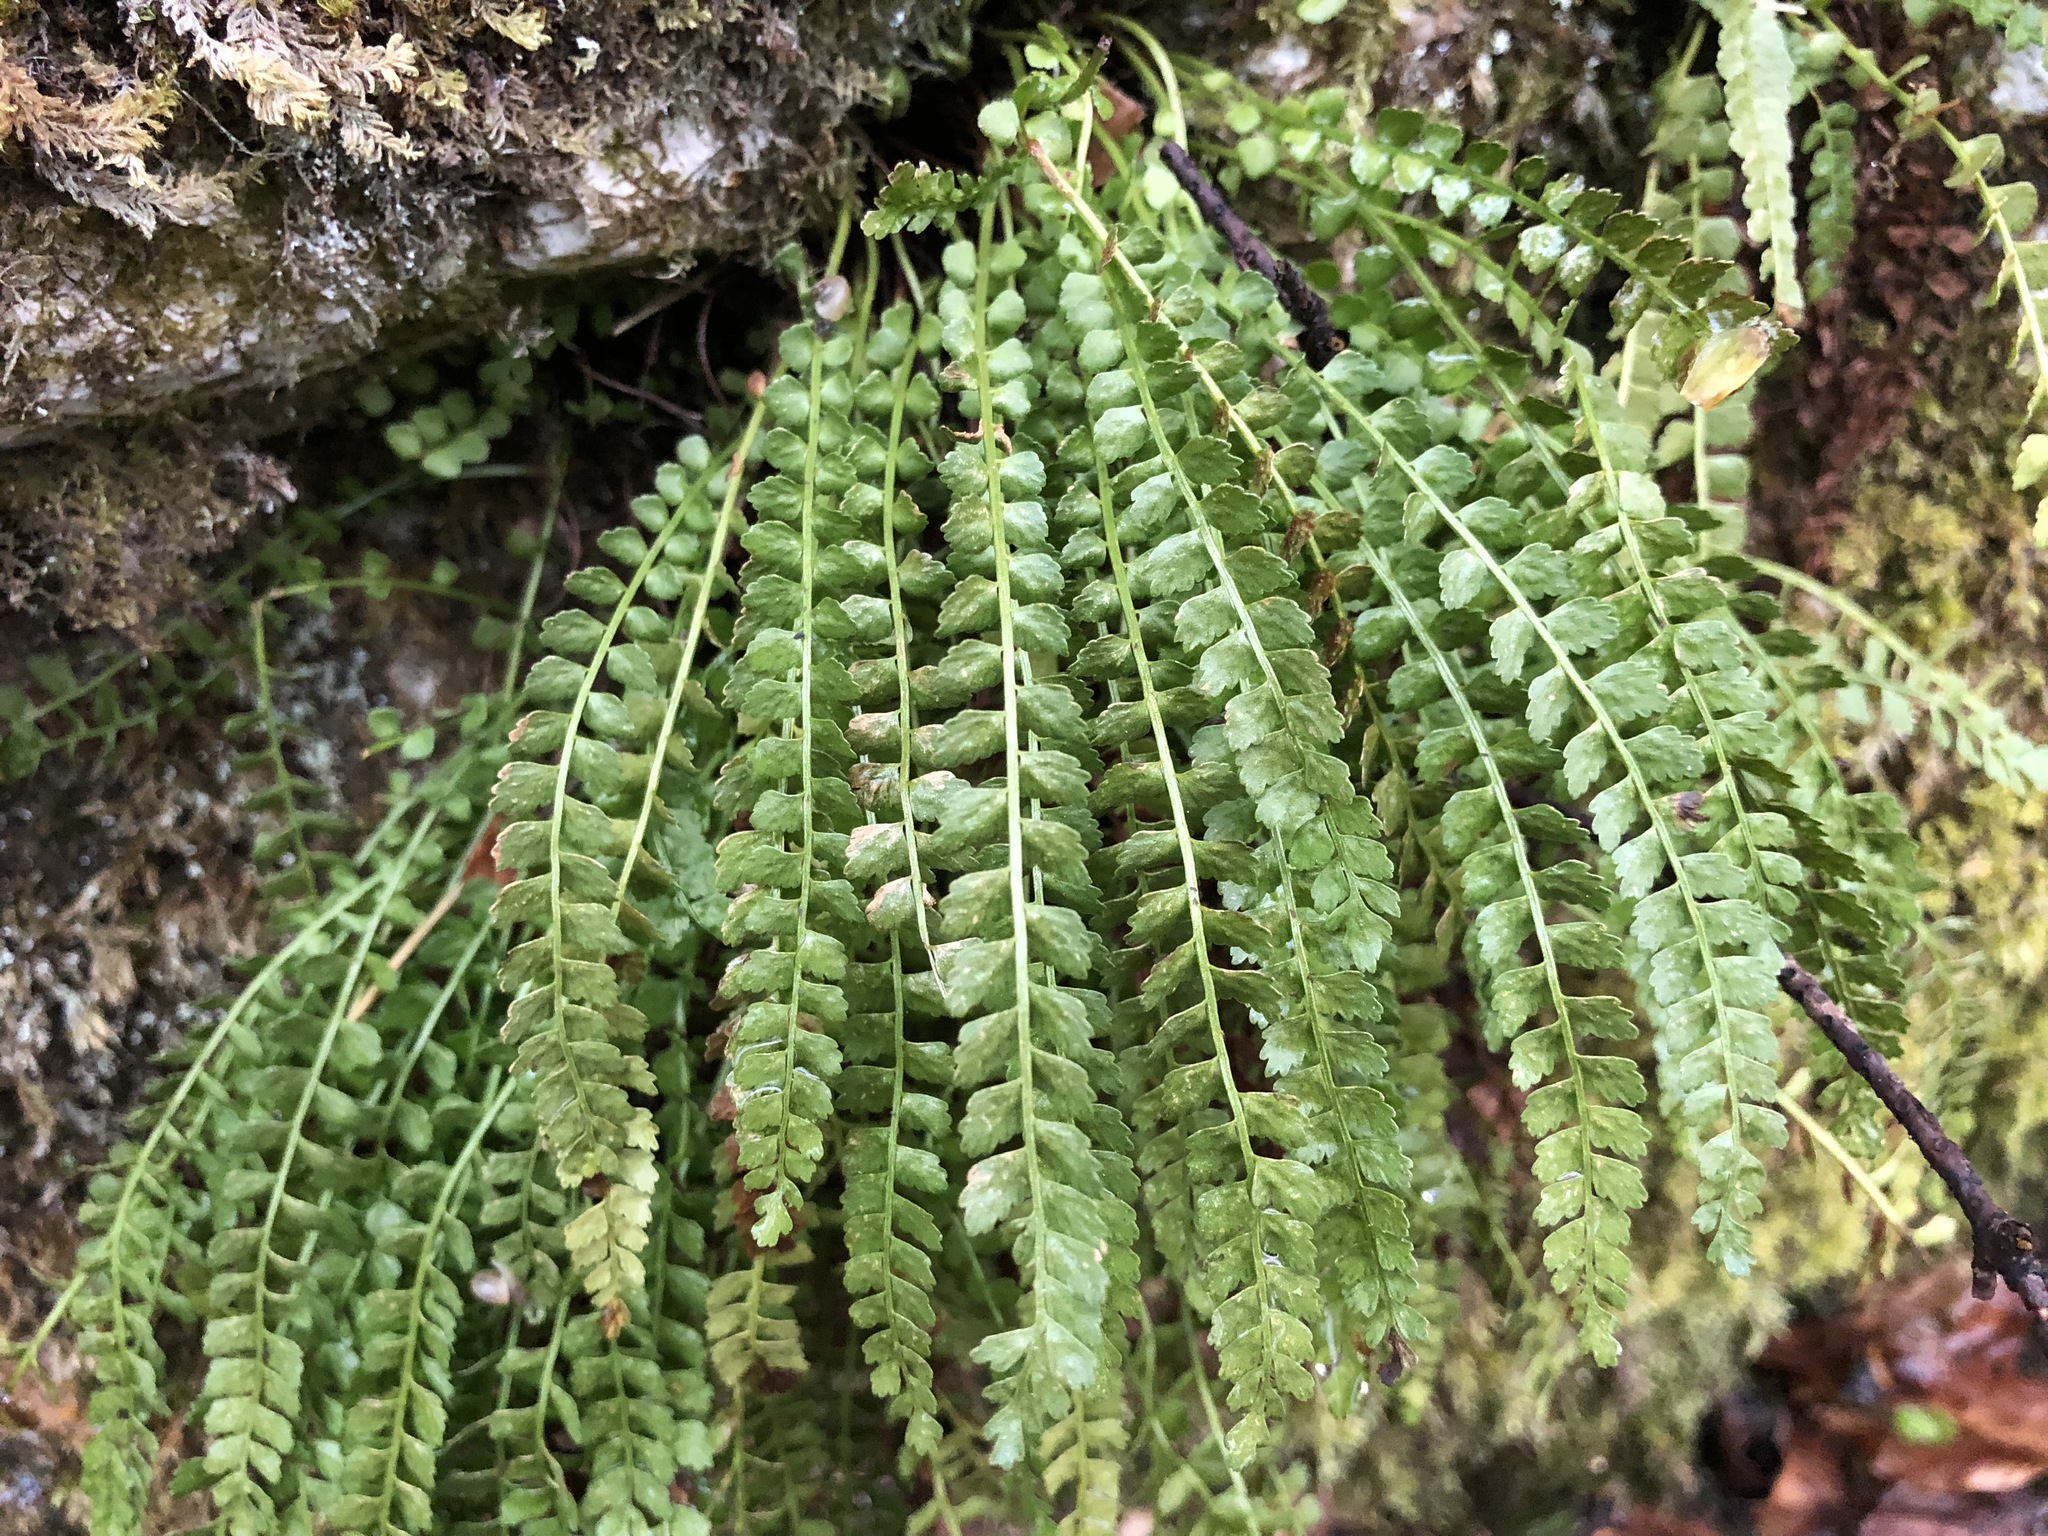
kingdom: Plantae
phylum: Tracheophyta
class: Polypodiopsida
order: Polypodiales
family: Aspleniaceae
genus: Asplenium
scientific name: Asplenium viride
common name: Green spleenwort
